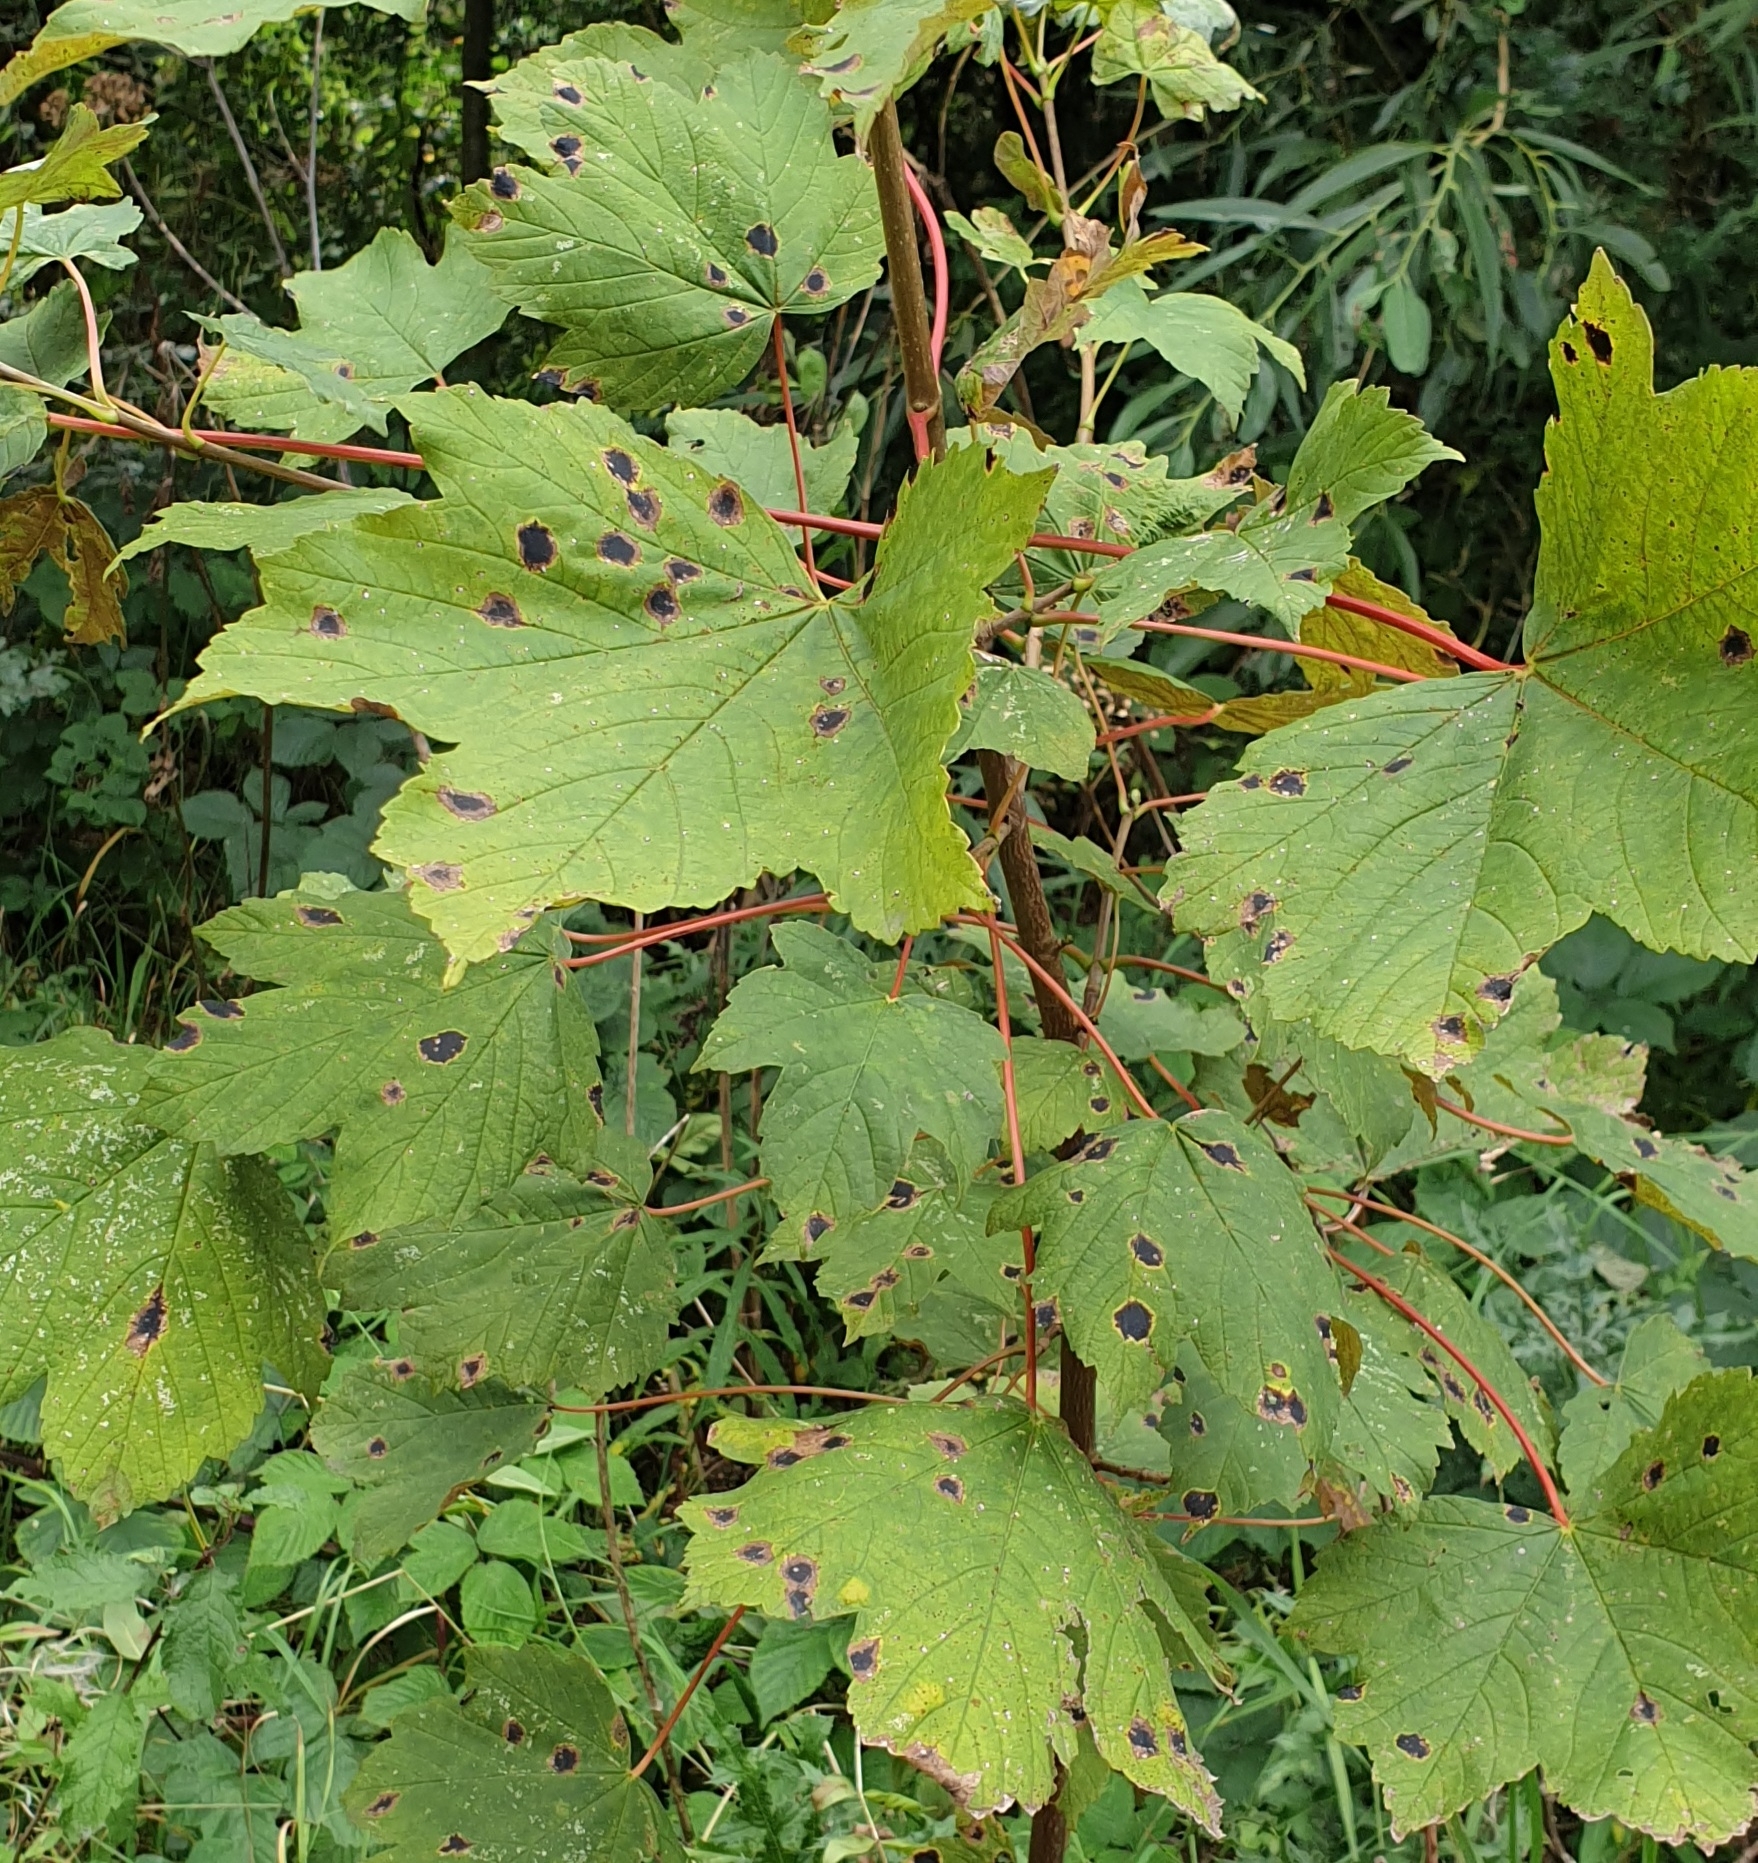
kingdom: Plantae
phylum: Tracheophyta
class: Magnoliopsida
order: Sapindales
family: Sapindaceae
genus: Acer
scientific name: Acer pseudoplatanus
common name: Sycamore
